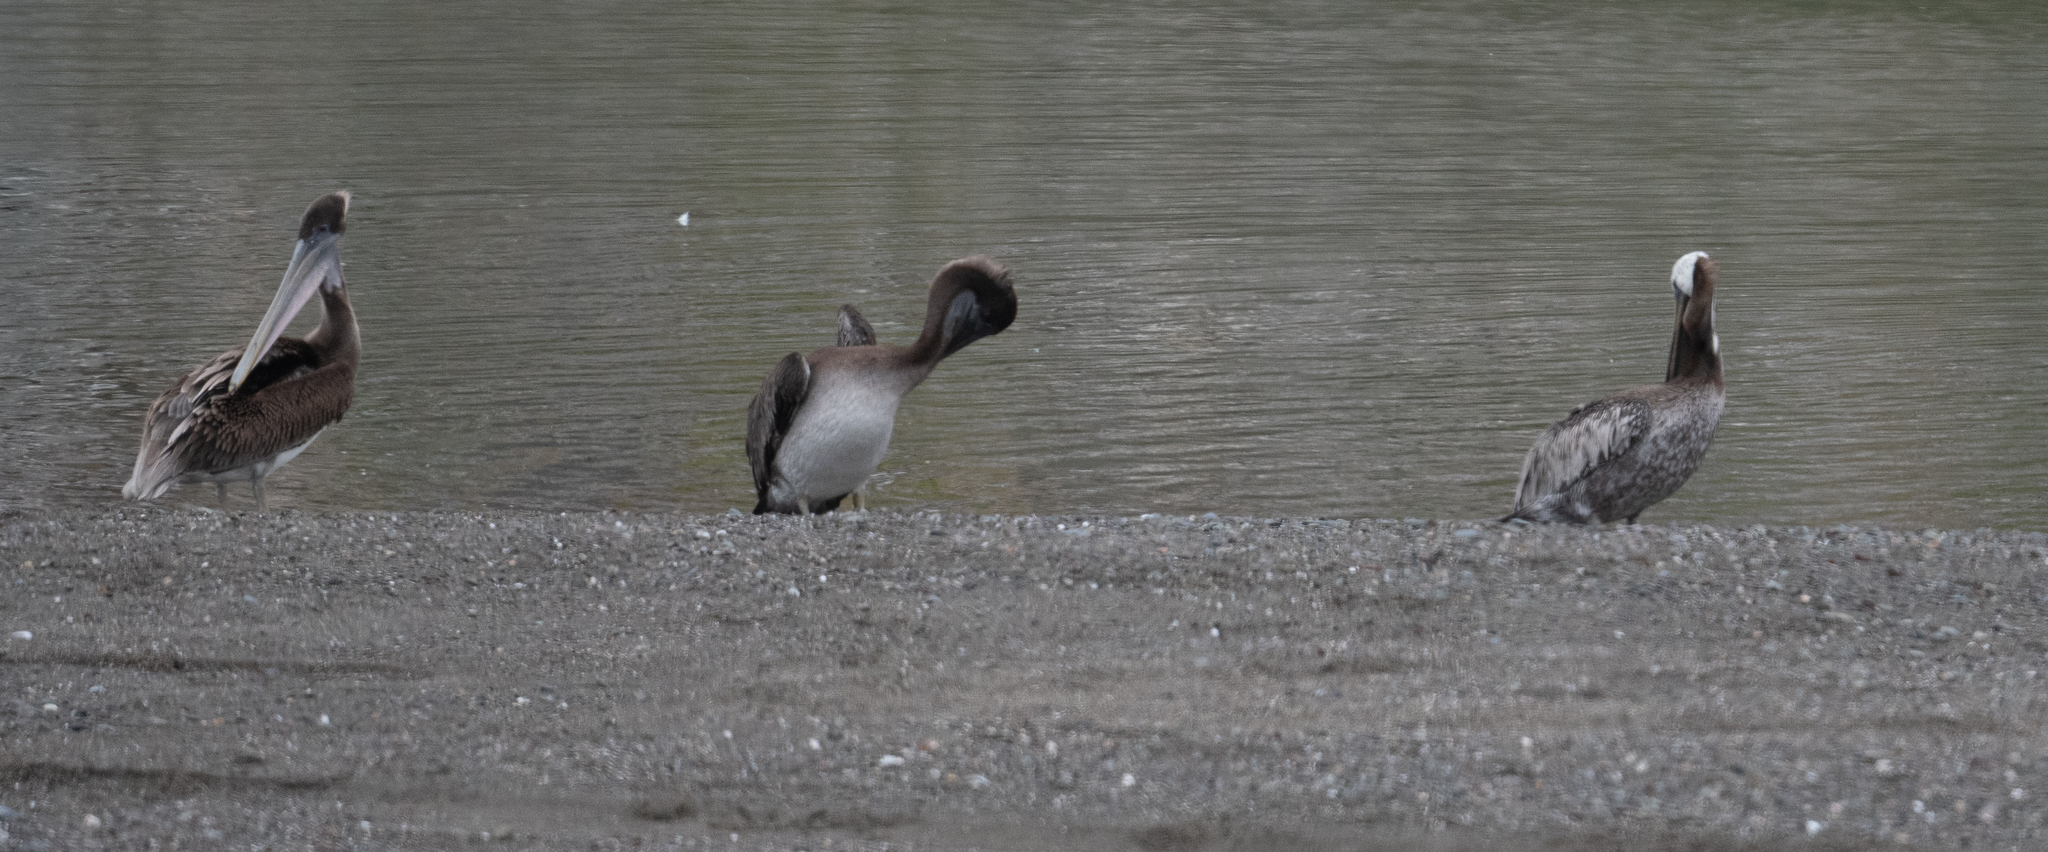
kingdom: Animalia
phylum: Chordata
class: Aves
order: Pelecaniformes
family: Pelecanidae
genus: Pelecanus
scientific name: Pelecanus occidentalis
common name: Brown pelican
